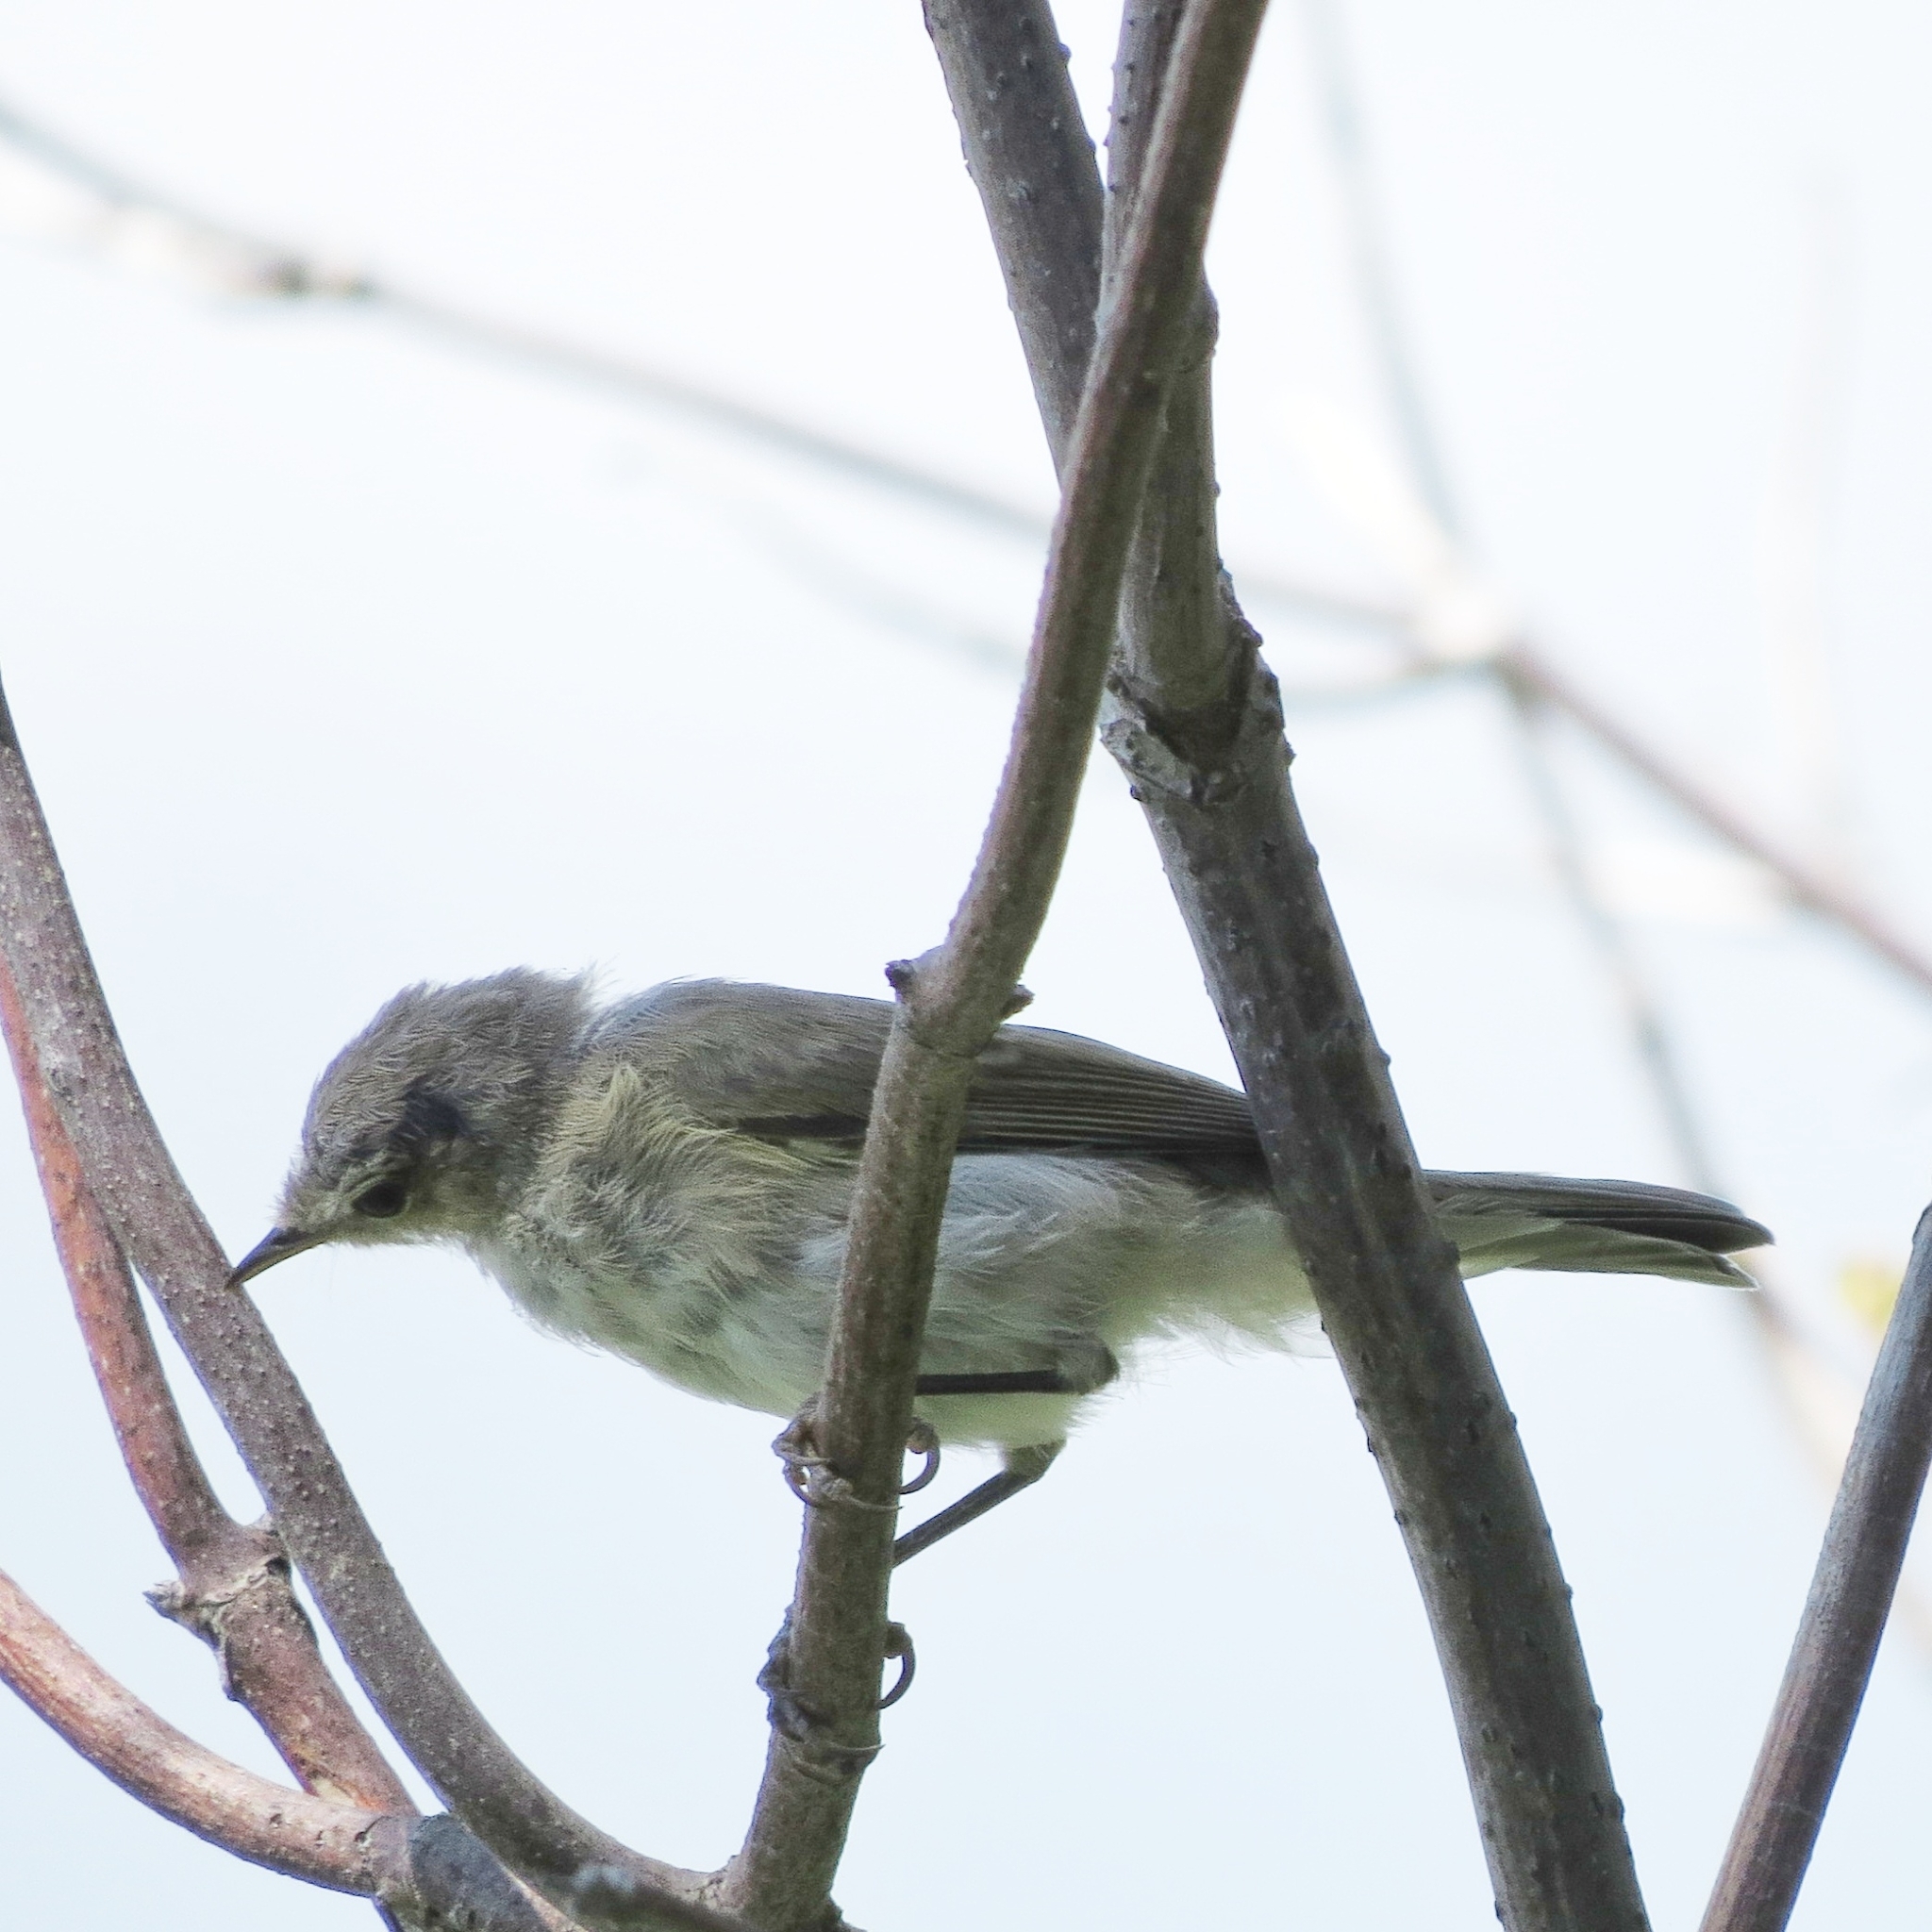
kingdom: Animalia
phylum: Chordata
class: Aves
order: Passeriformes
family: Sylviidae
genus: Sylvia
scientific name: Sylvia curruca
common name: Lesser whitethroat
